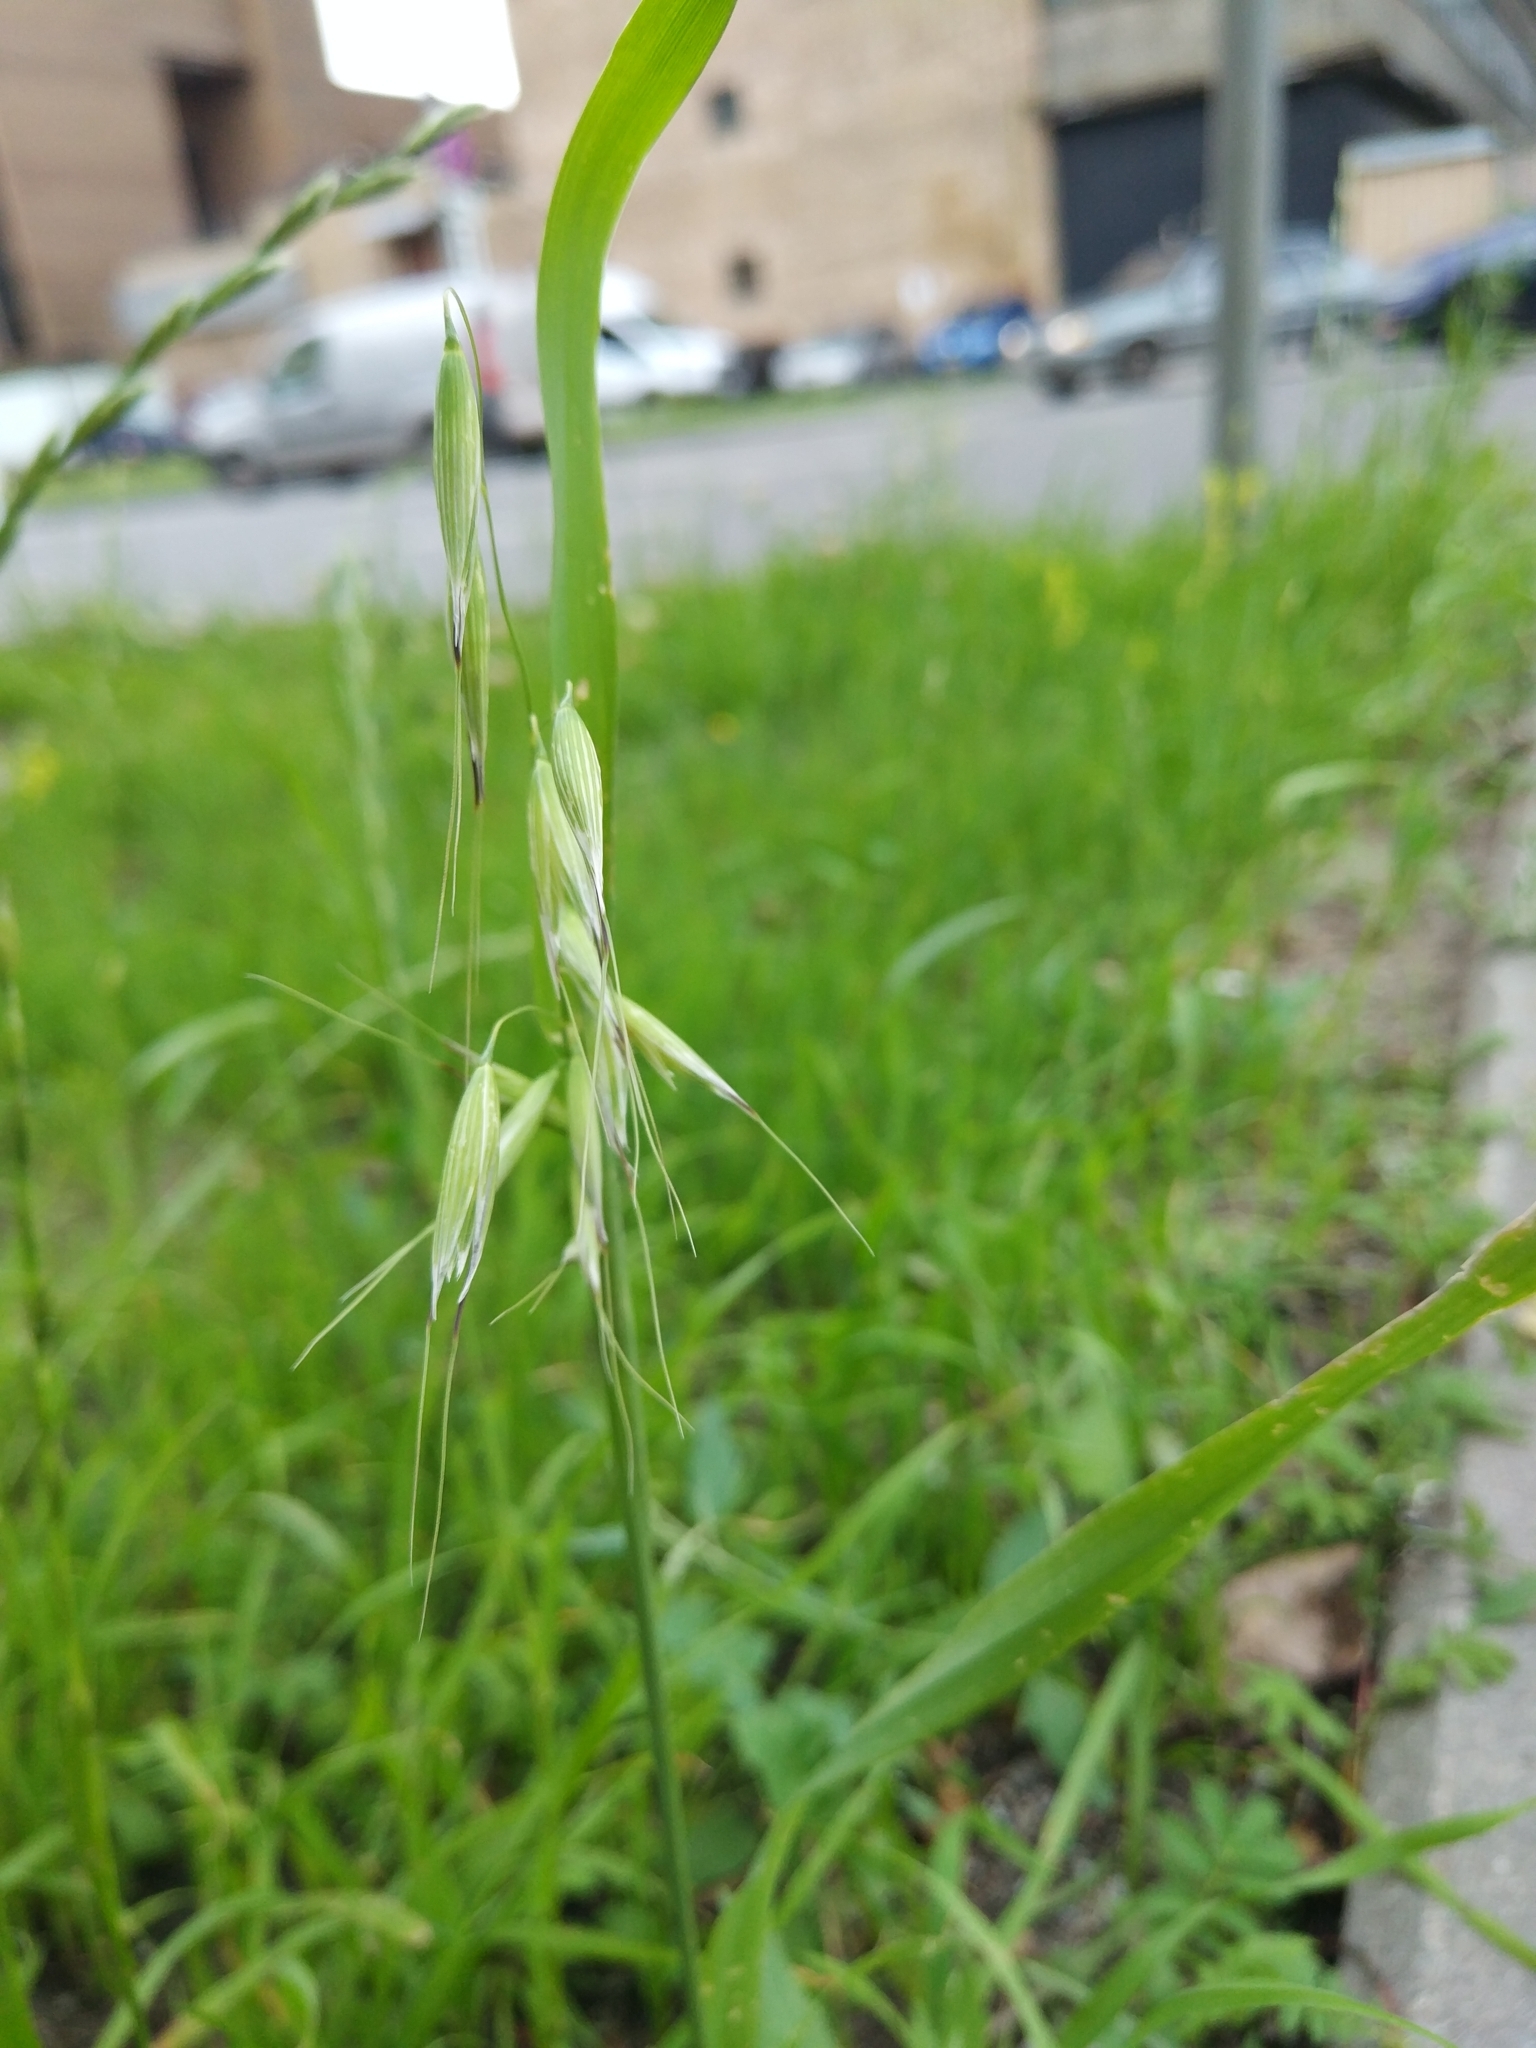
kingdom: Plantae
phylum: Tracheophyta
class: Liliopsida
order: Poales
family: Poaceae
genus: Avena
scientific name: Avena fatua
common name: Wild oat
